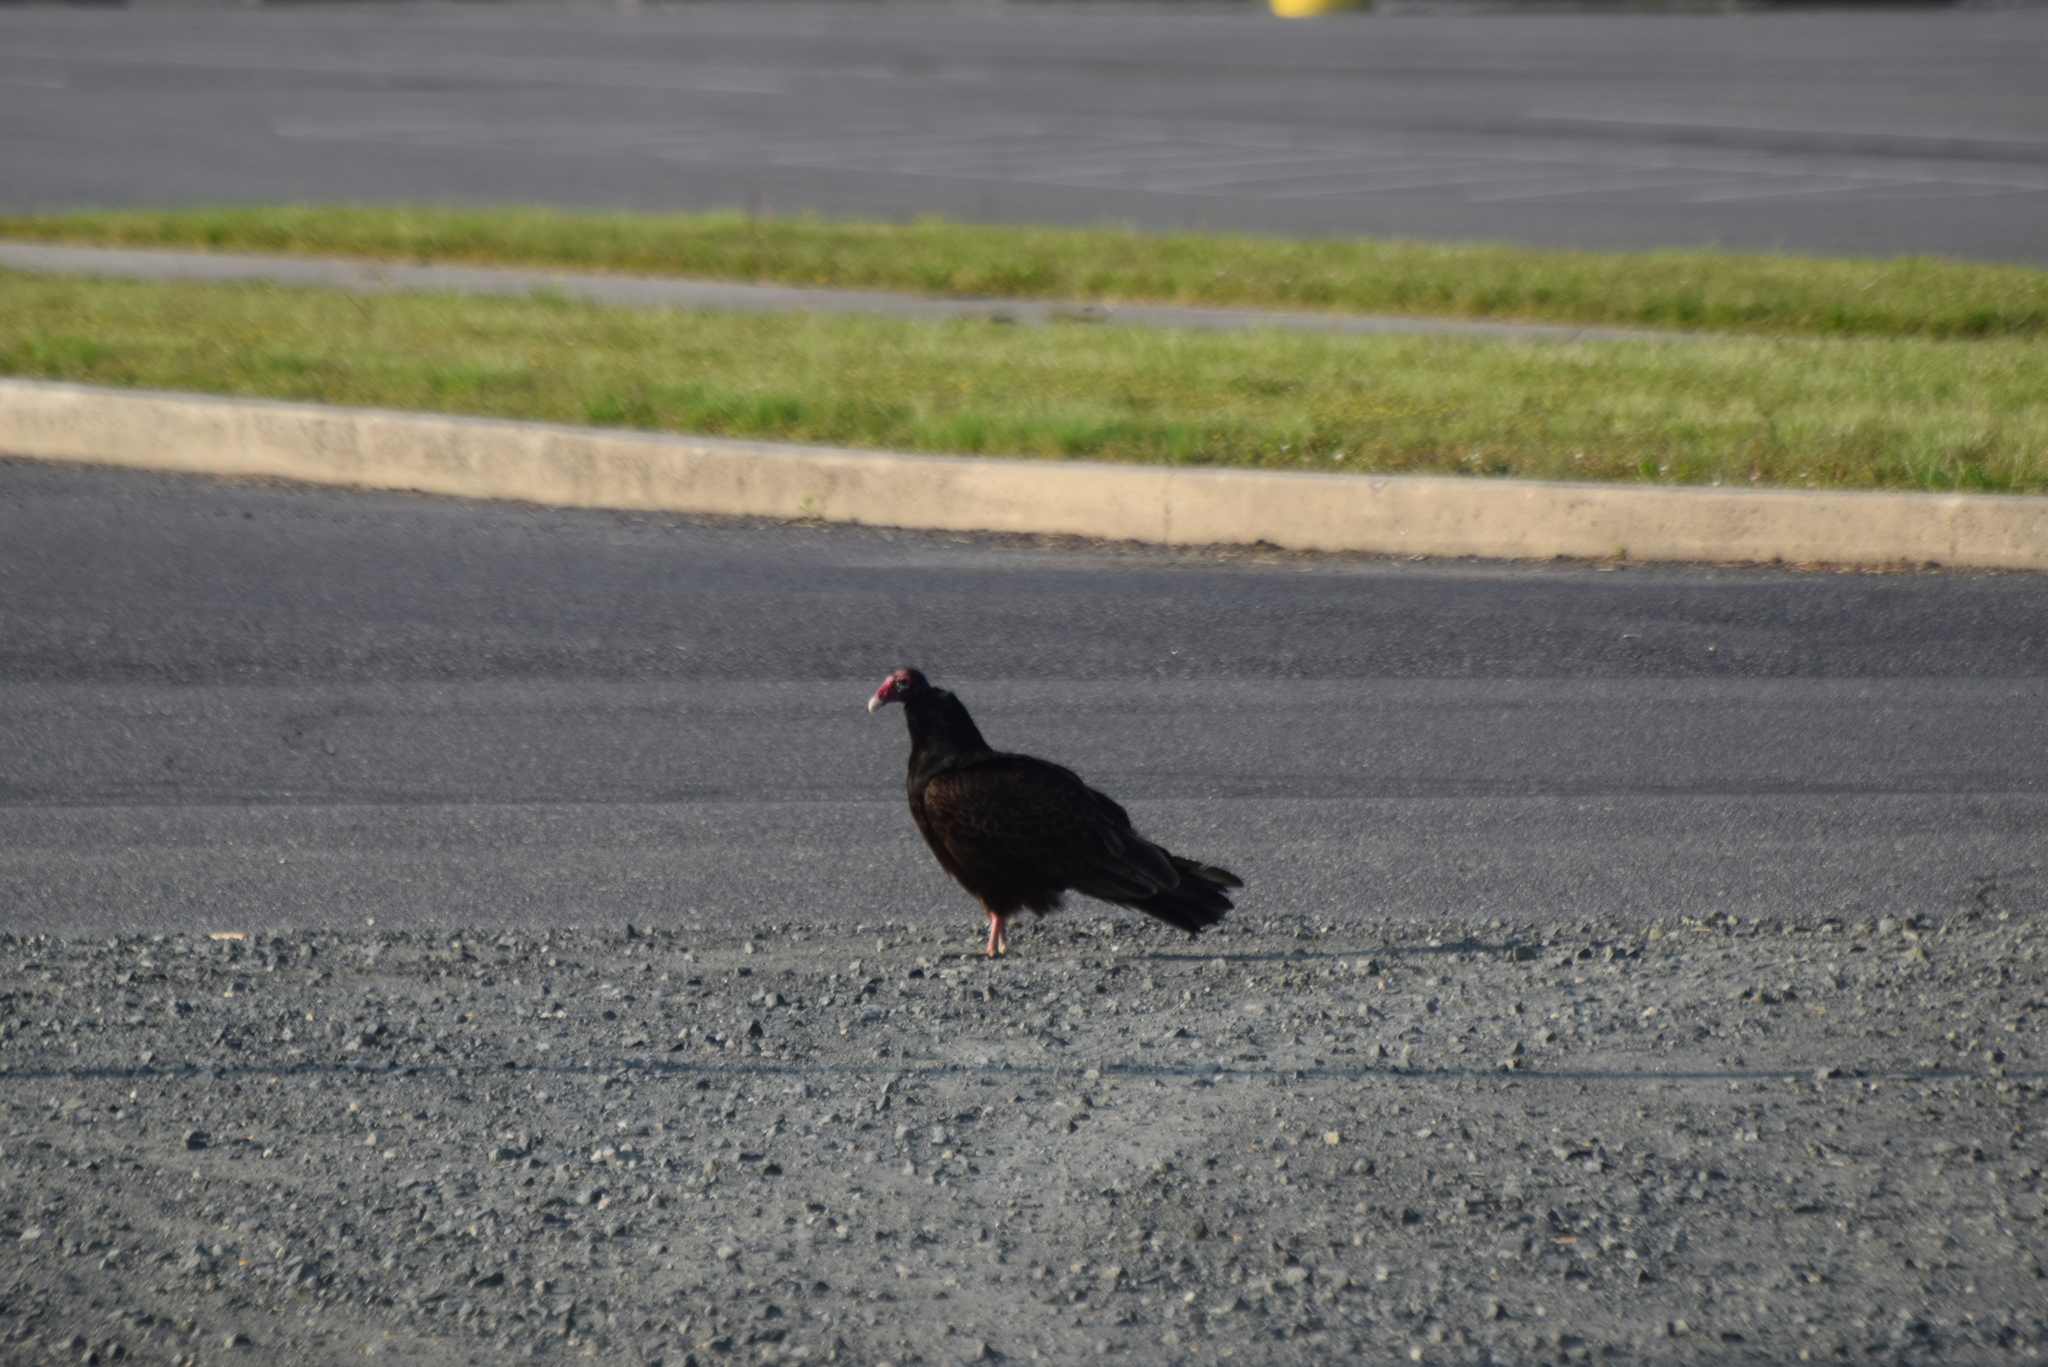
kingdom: Animalia
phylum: Chordata
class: Aves
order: Accipitriformes
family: Cathartidae
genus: Cathartes
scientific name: Cathartes aura
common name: Turkey vulture
